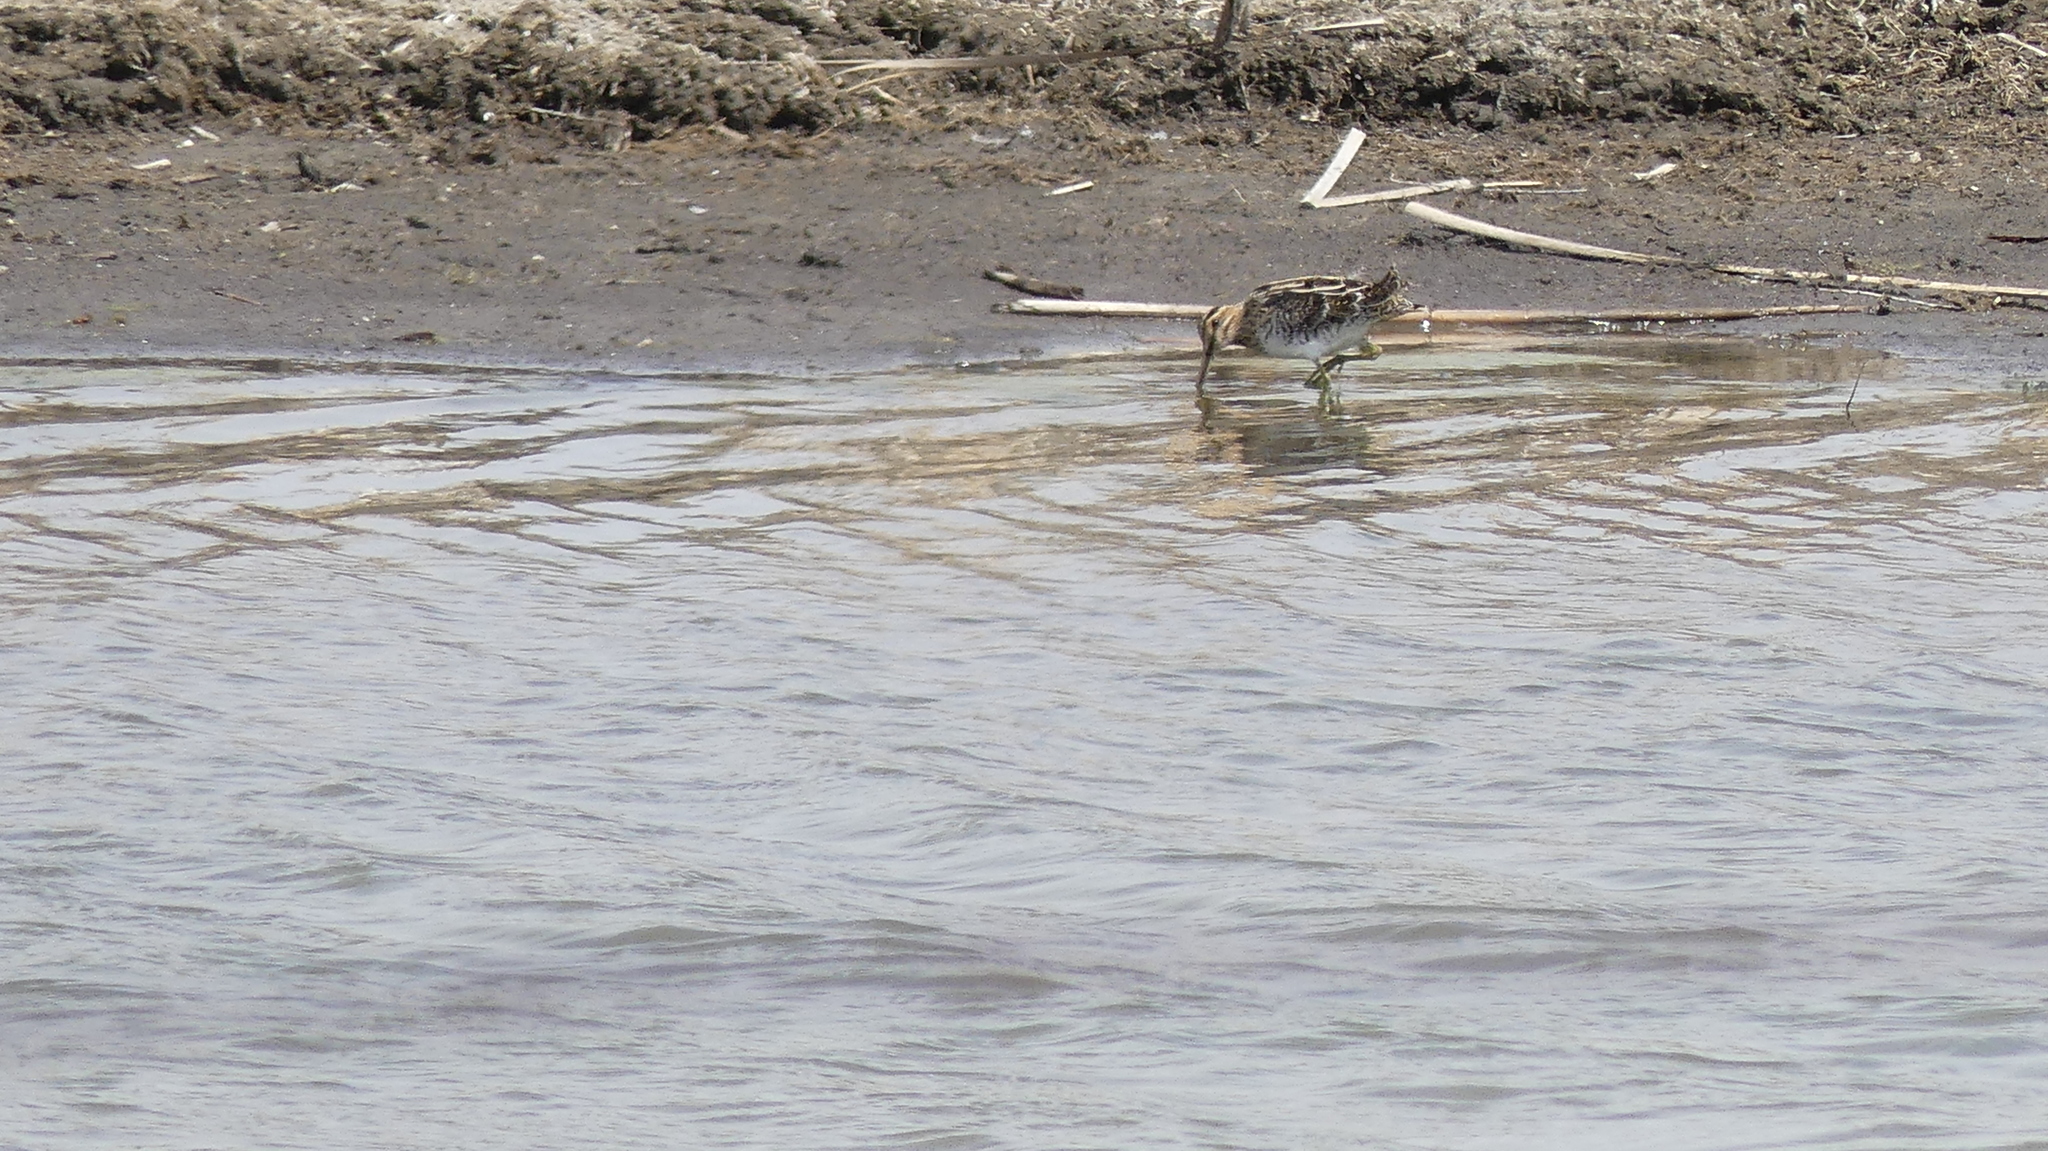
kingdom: Animalia
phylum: Chordata
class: Aves
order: Charadriiformes
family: Scolopacidae
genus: Gallinago
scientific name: Gallinago delicata
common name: Wilson's snipe
